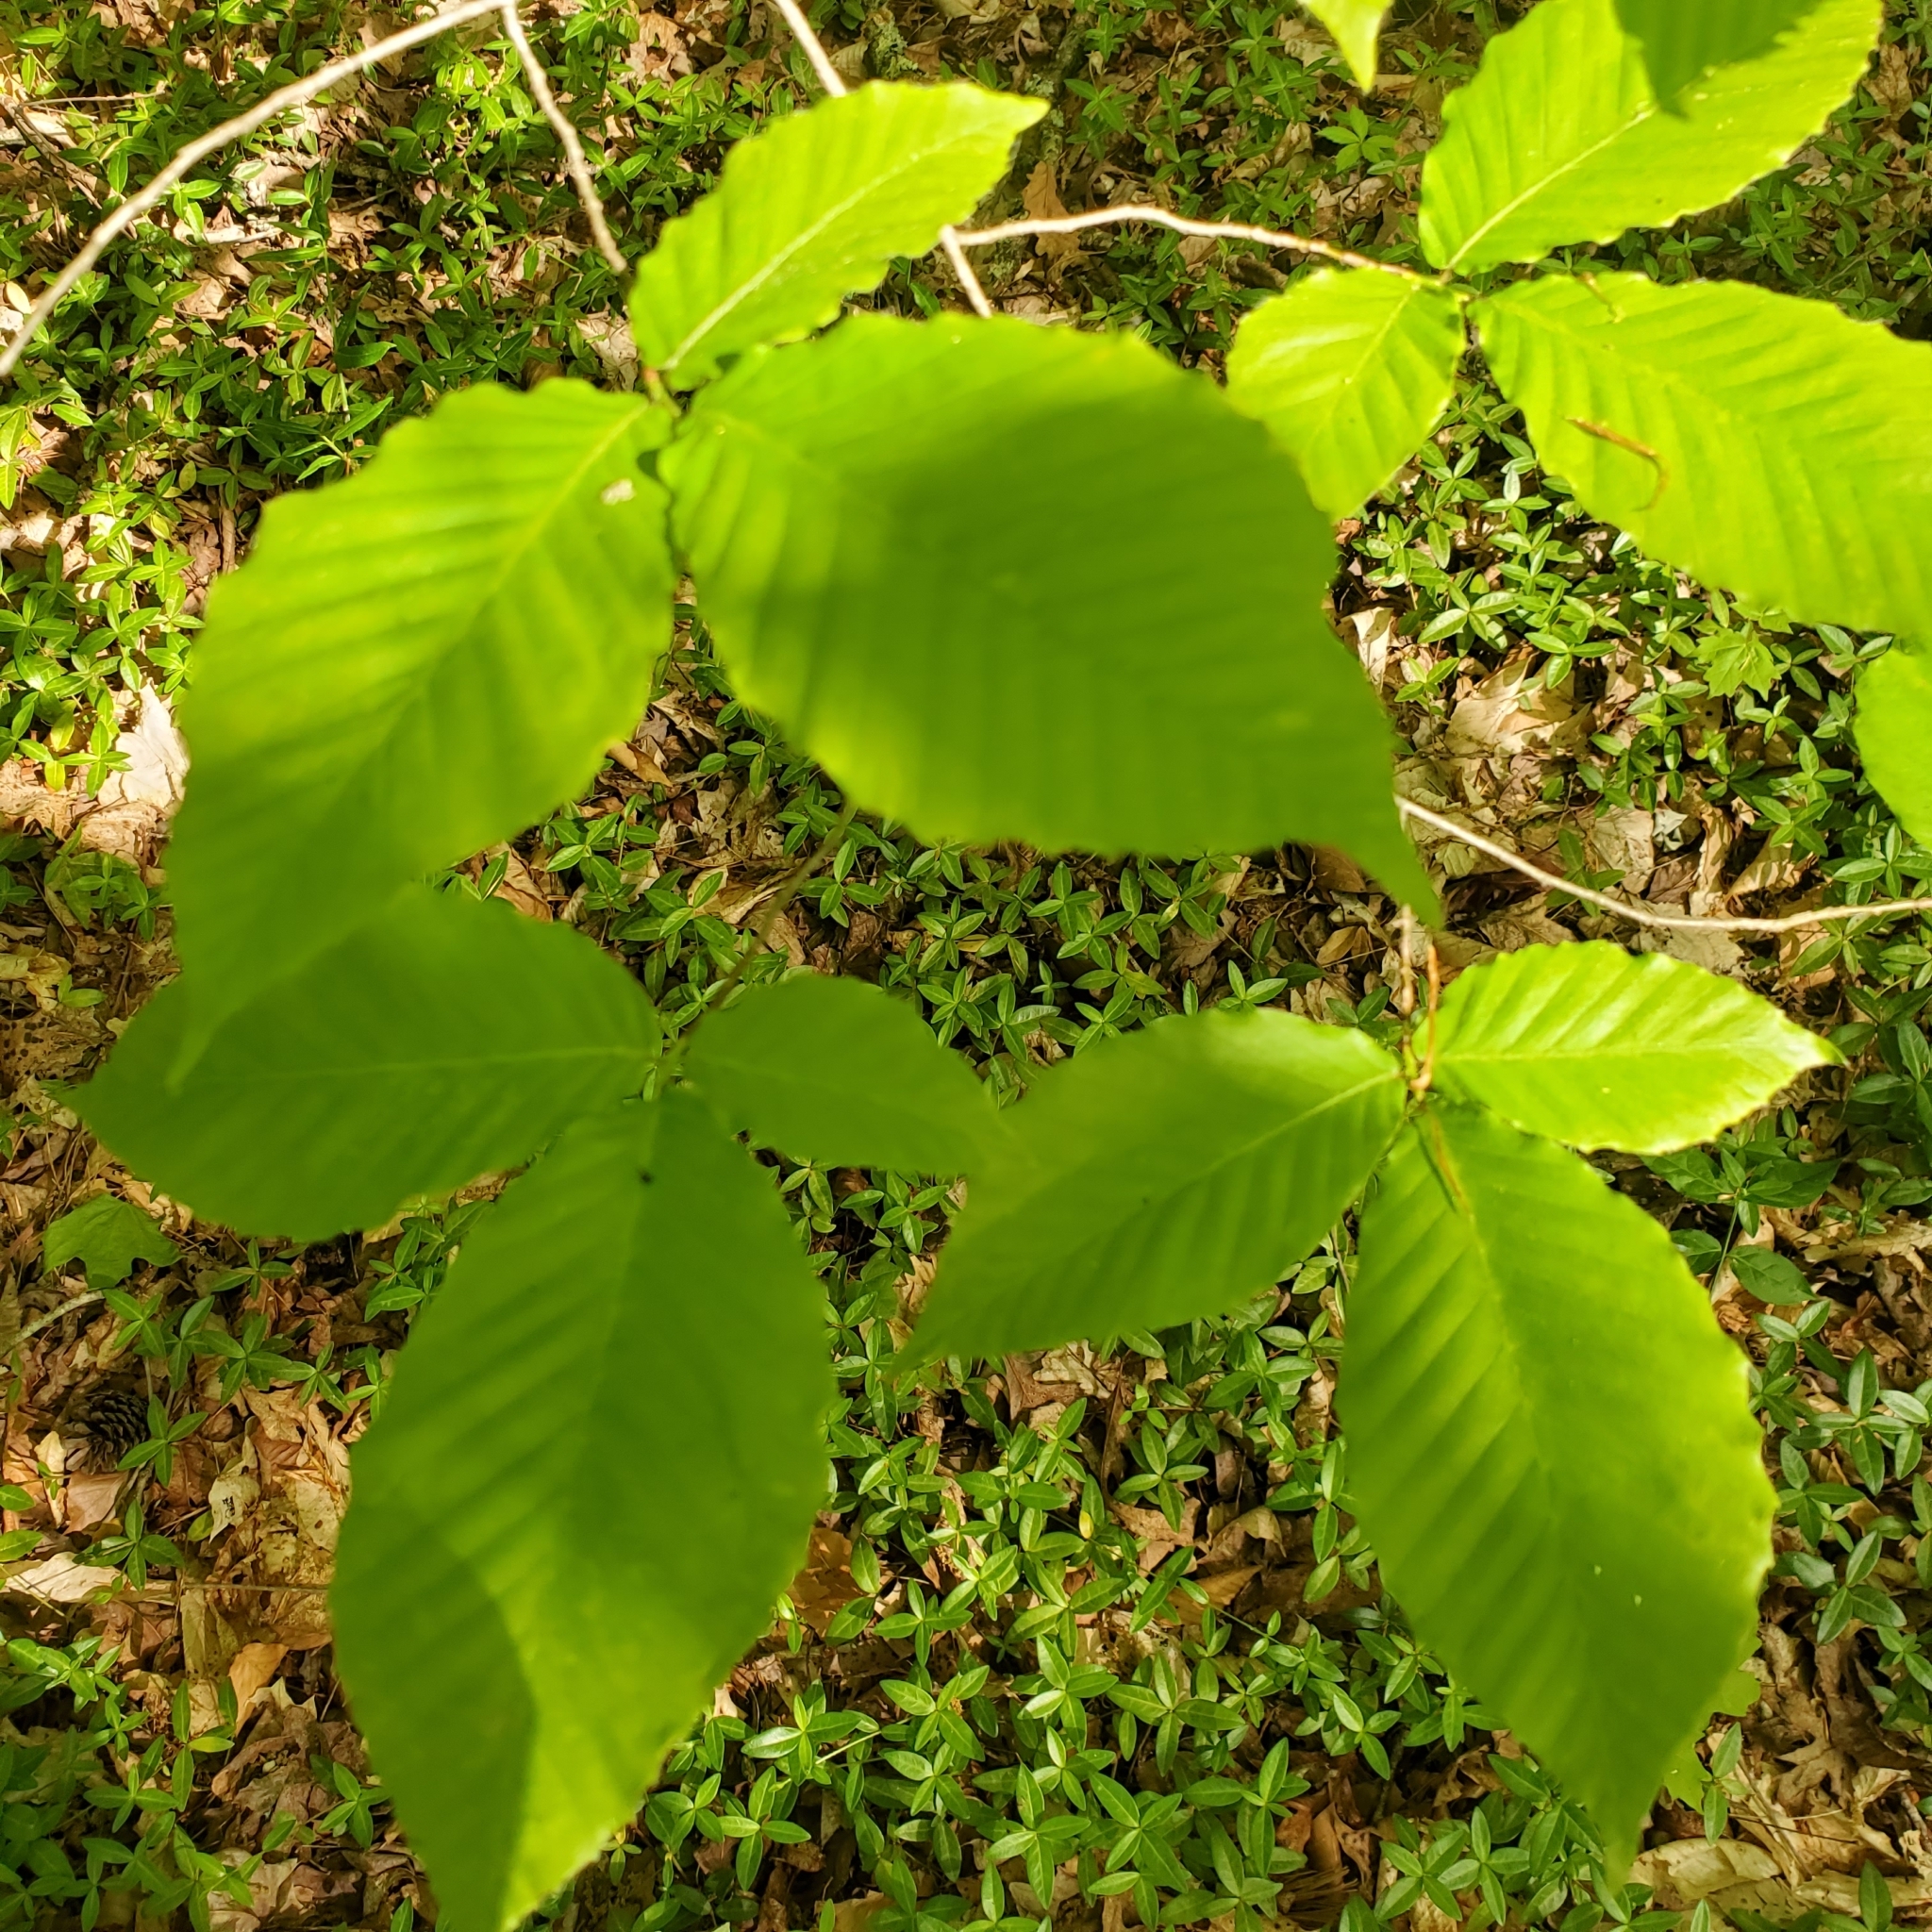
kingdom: Plantae
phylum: Tracheophyta
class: Magnoliopsida
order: Fagales
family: Fagaceae
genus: Fagus
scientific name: Fagus grandifolia
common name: American beech
